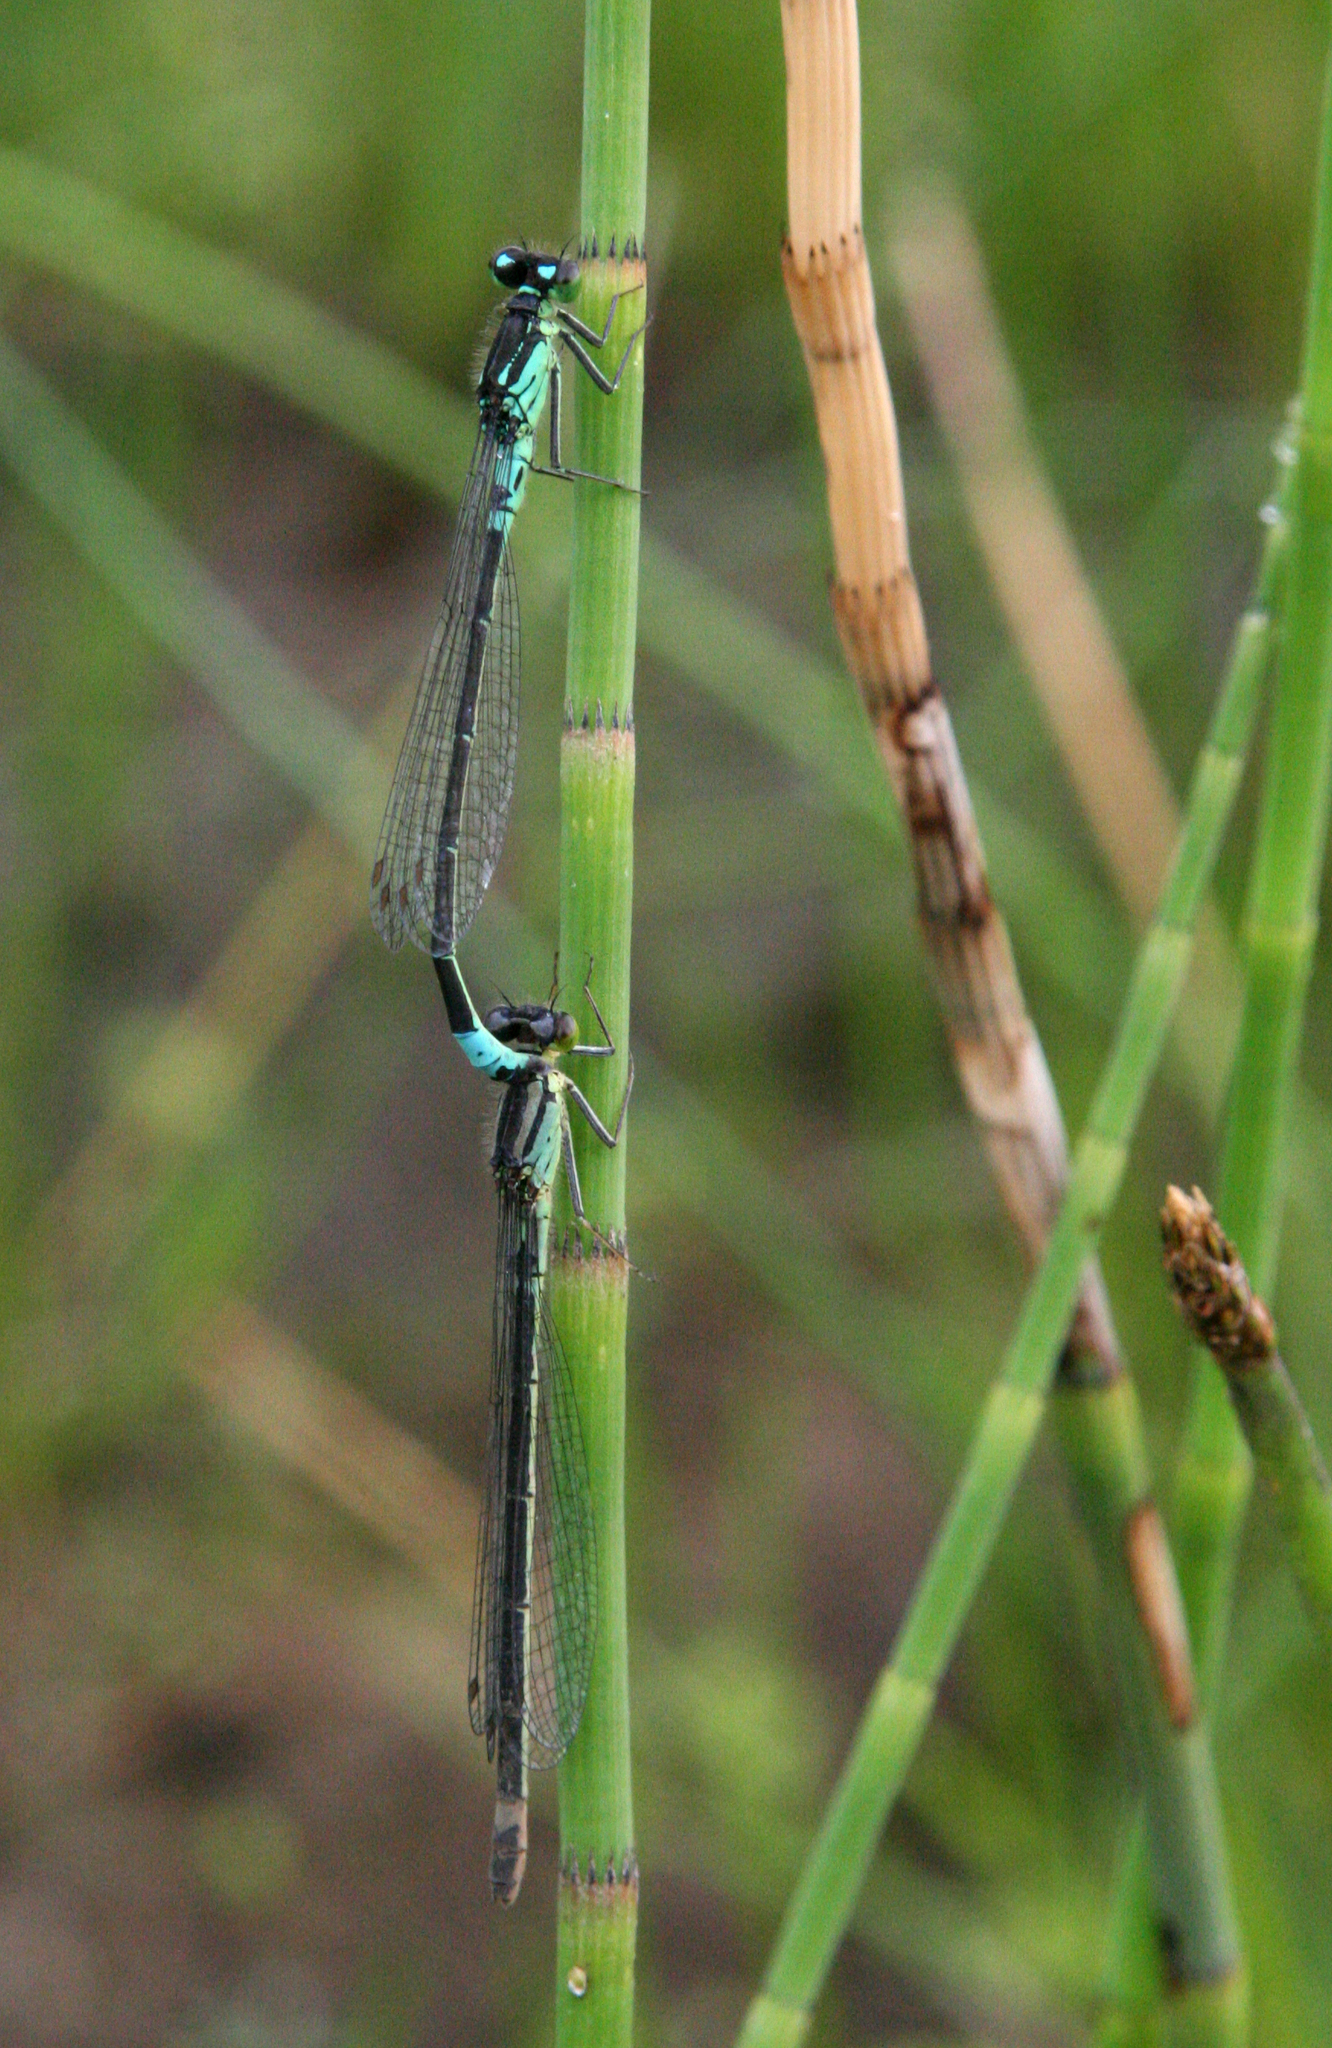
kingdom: Animalia
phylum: Arthropoda
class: Insecta
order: Odonata
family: Coenagrionidae
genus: Coenagrion
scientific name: Coenagrion armatum
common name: Dark bluet
